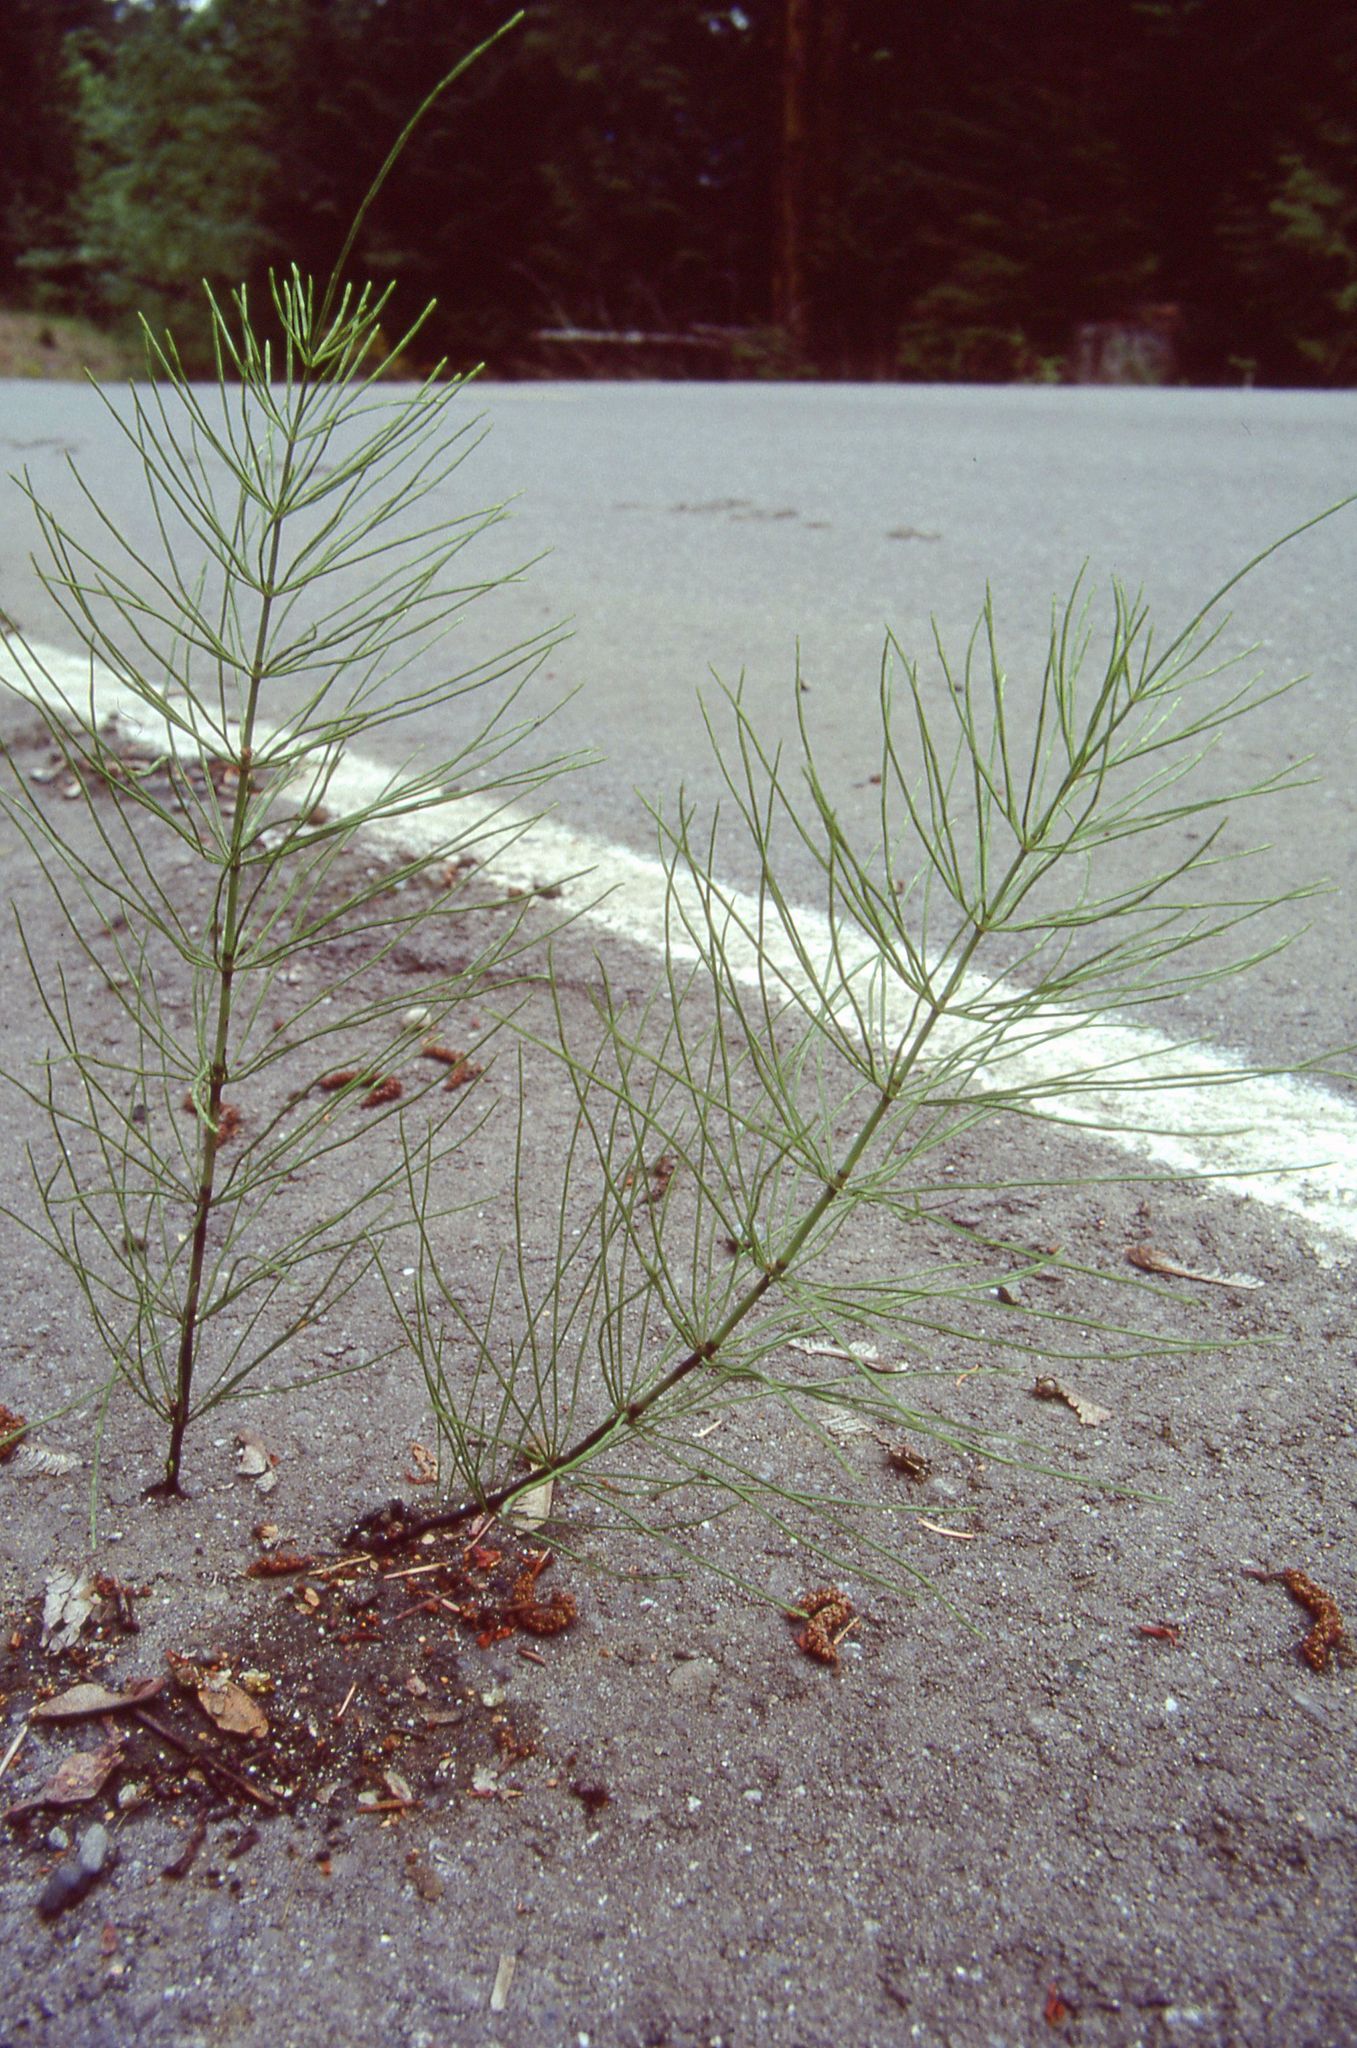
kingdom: Plantae
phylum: Tracheophyta
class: Polypodiopsida
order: Equisetales
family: Equisetaceae
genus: Equisetum
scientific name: Equisetum arvense
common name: Field horsetail
